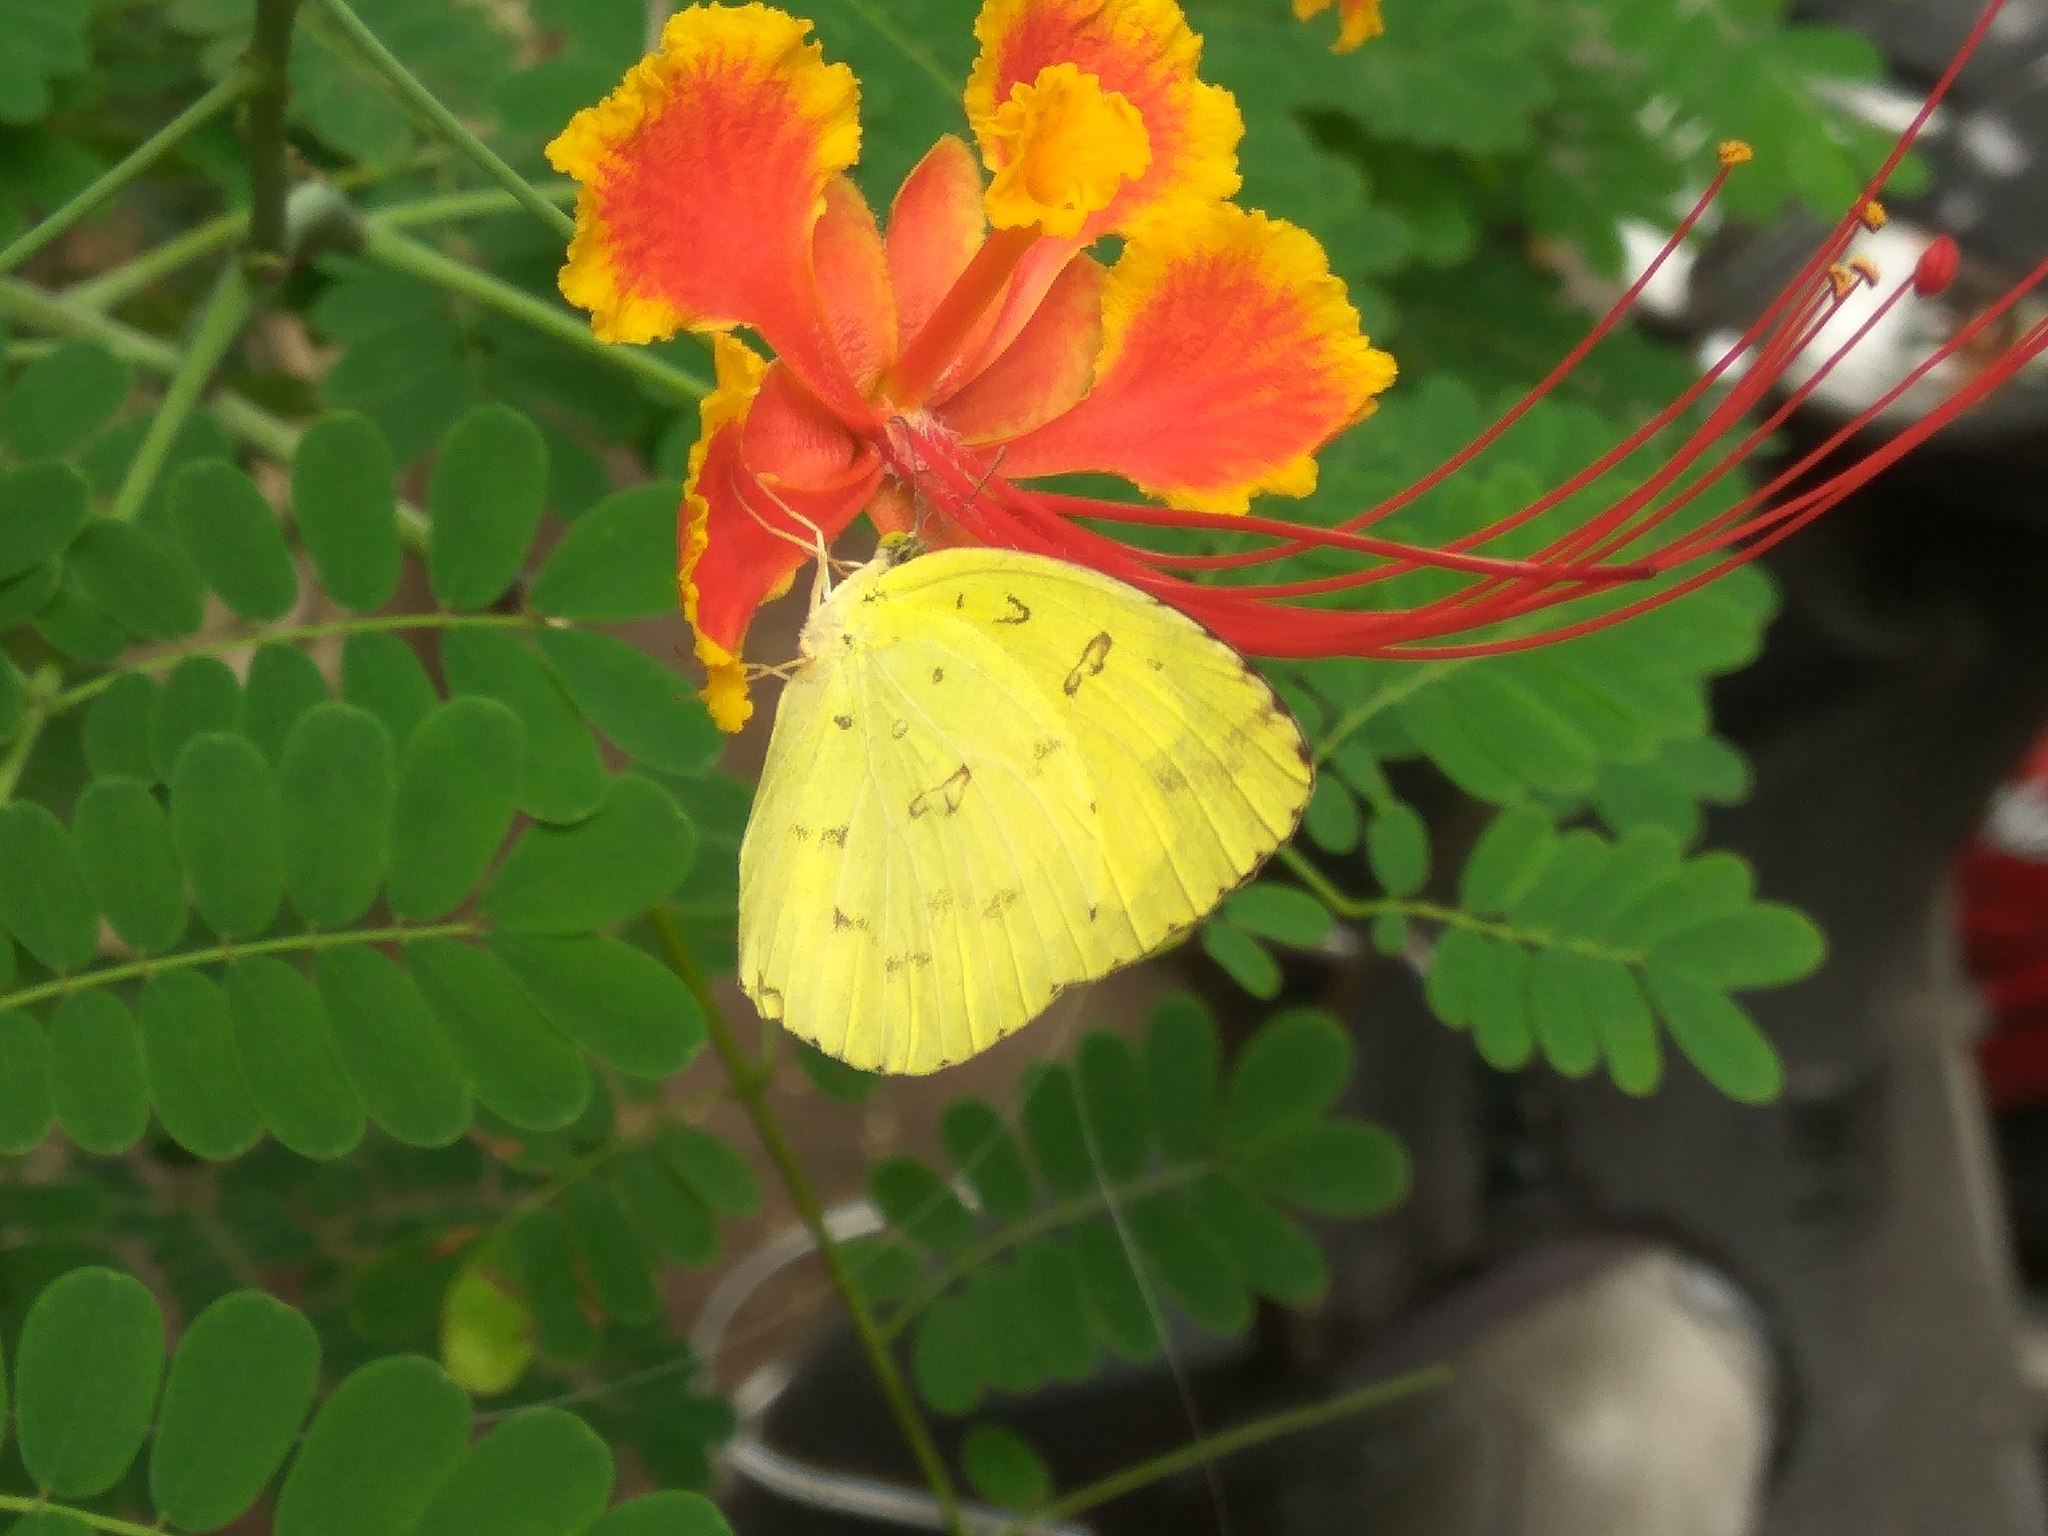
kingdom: Animalia
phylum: Arthropoda
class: Insecta
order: Lepidoptera
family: Pieridae
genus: Eurema
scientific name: Eurema hecabe
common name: Pale grass yellow
